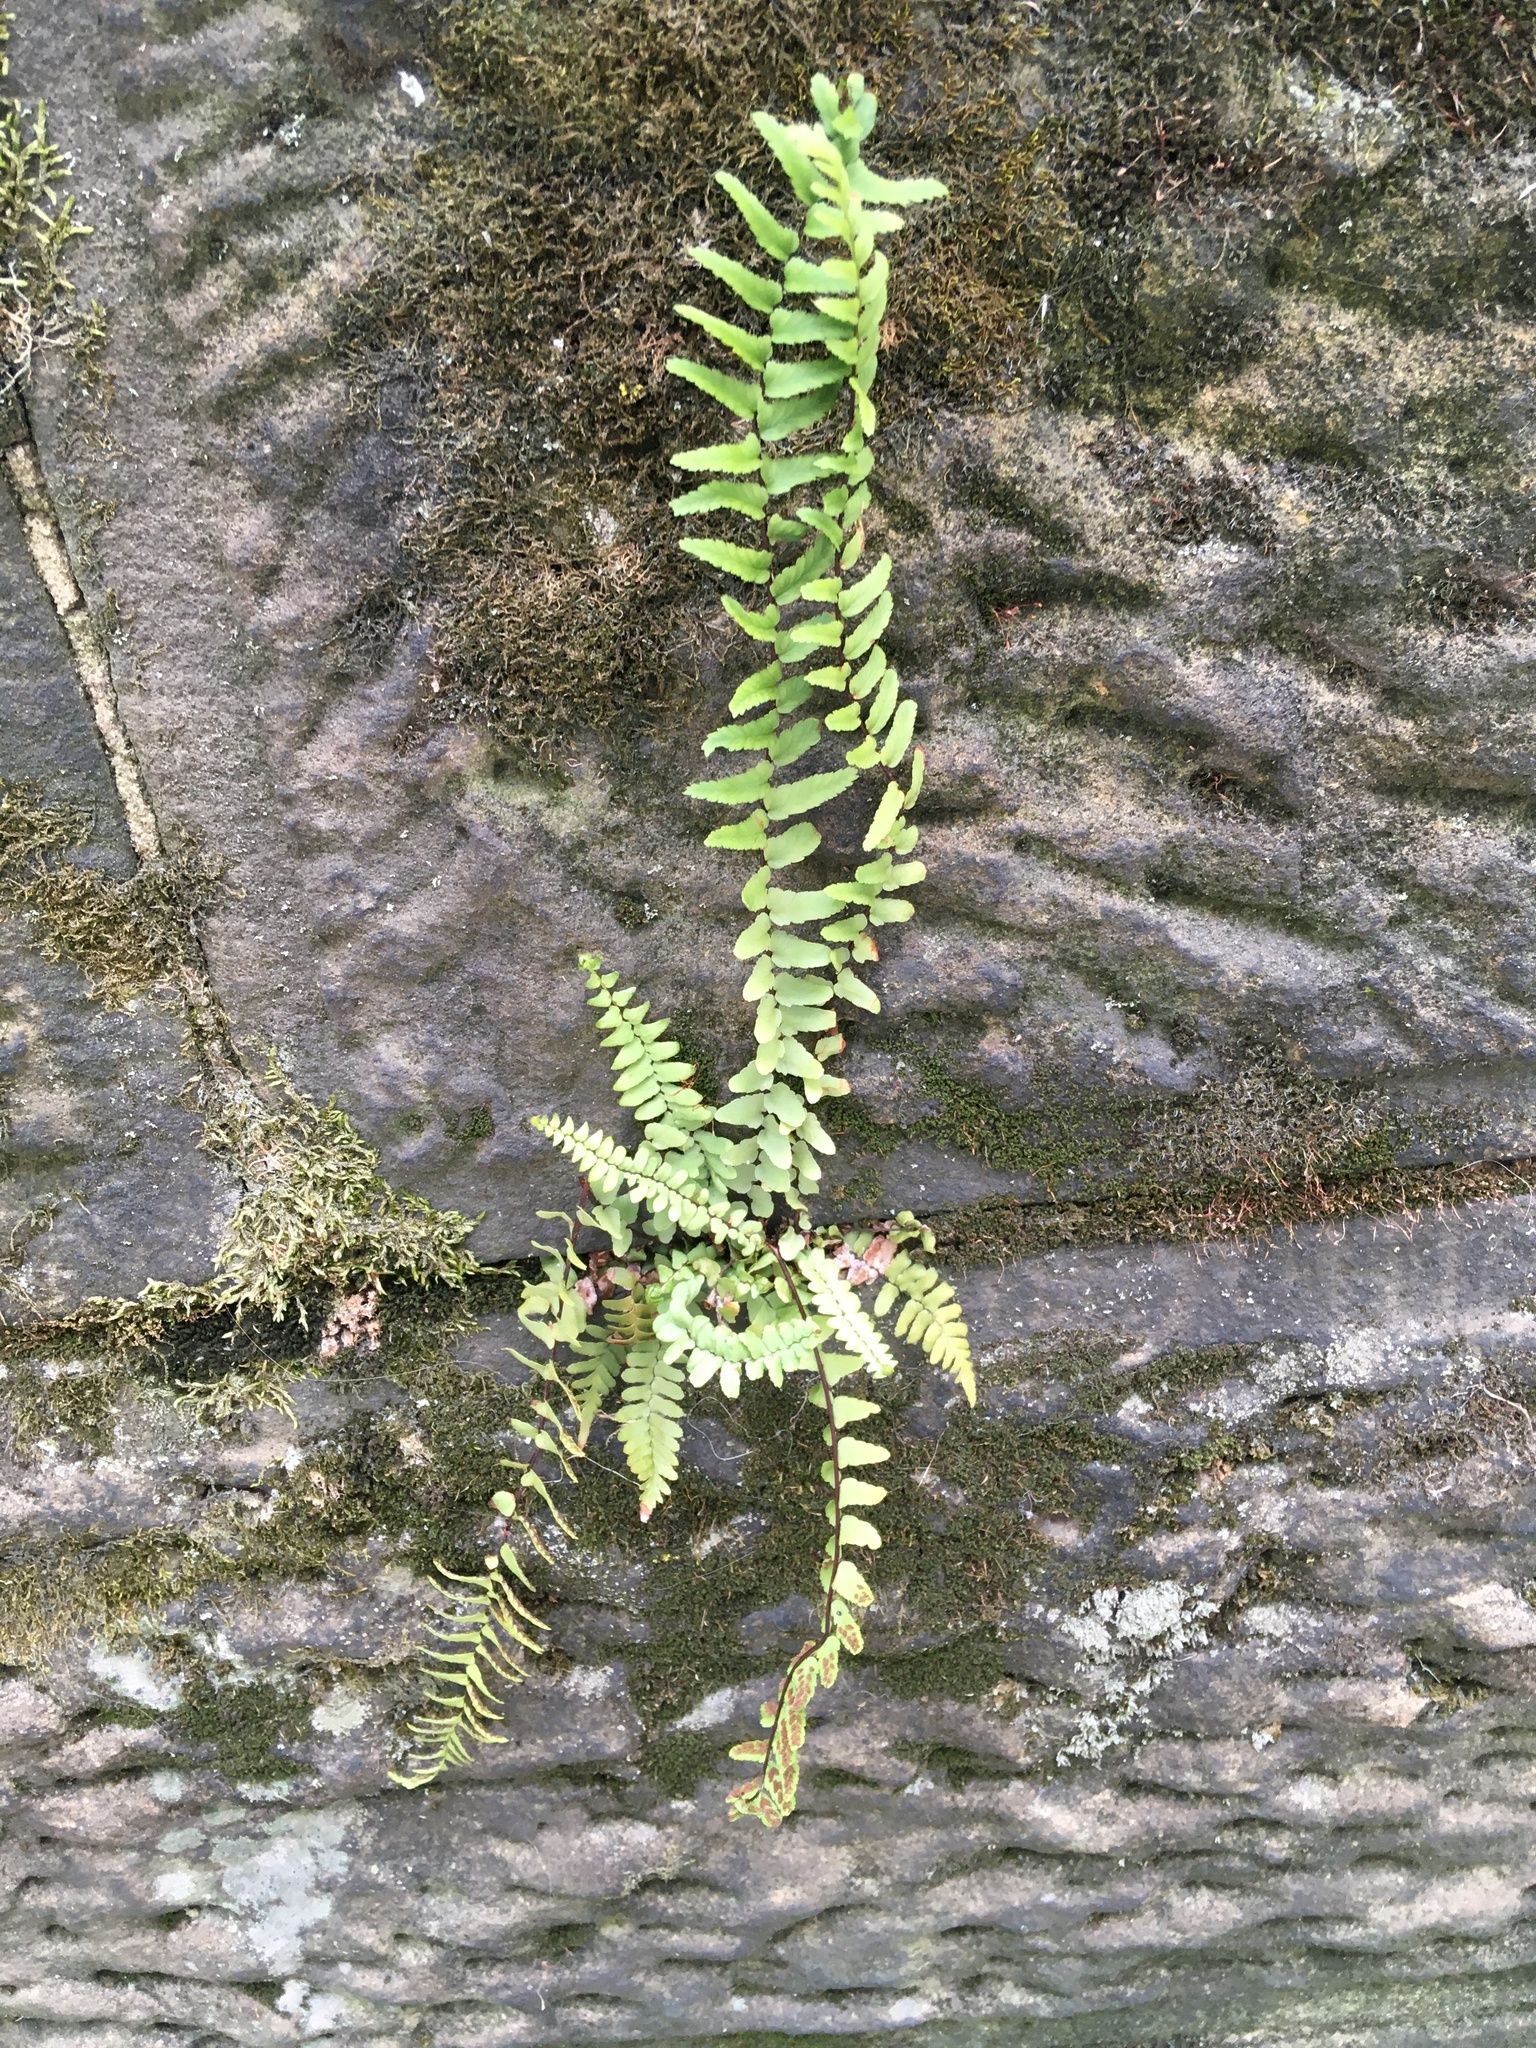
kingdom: Plantae
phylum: Tracheophyta
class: Polypodiopsida
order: Polypodiales
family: Aspleniaceae
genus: Asplenium
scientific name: Asplenium platyneuron
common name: Ebony spleenwort
